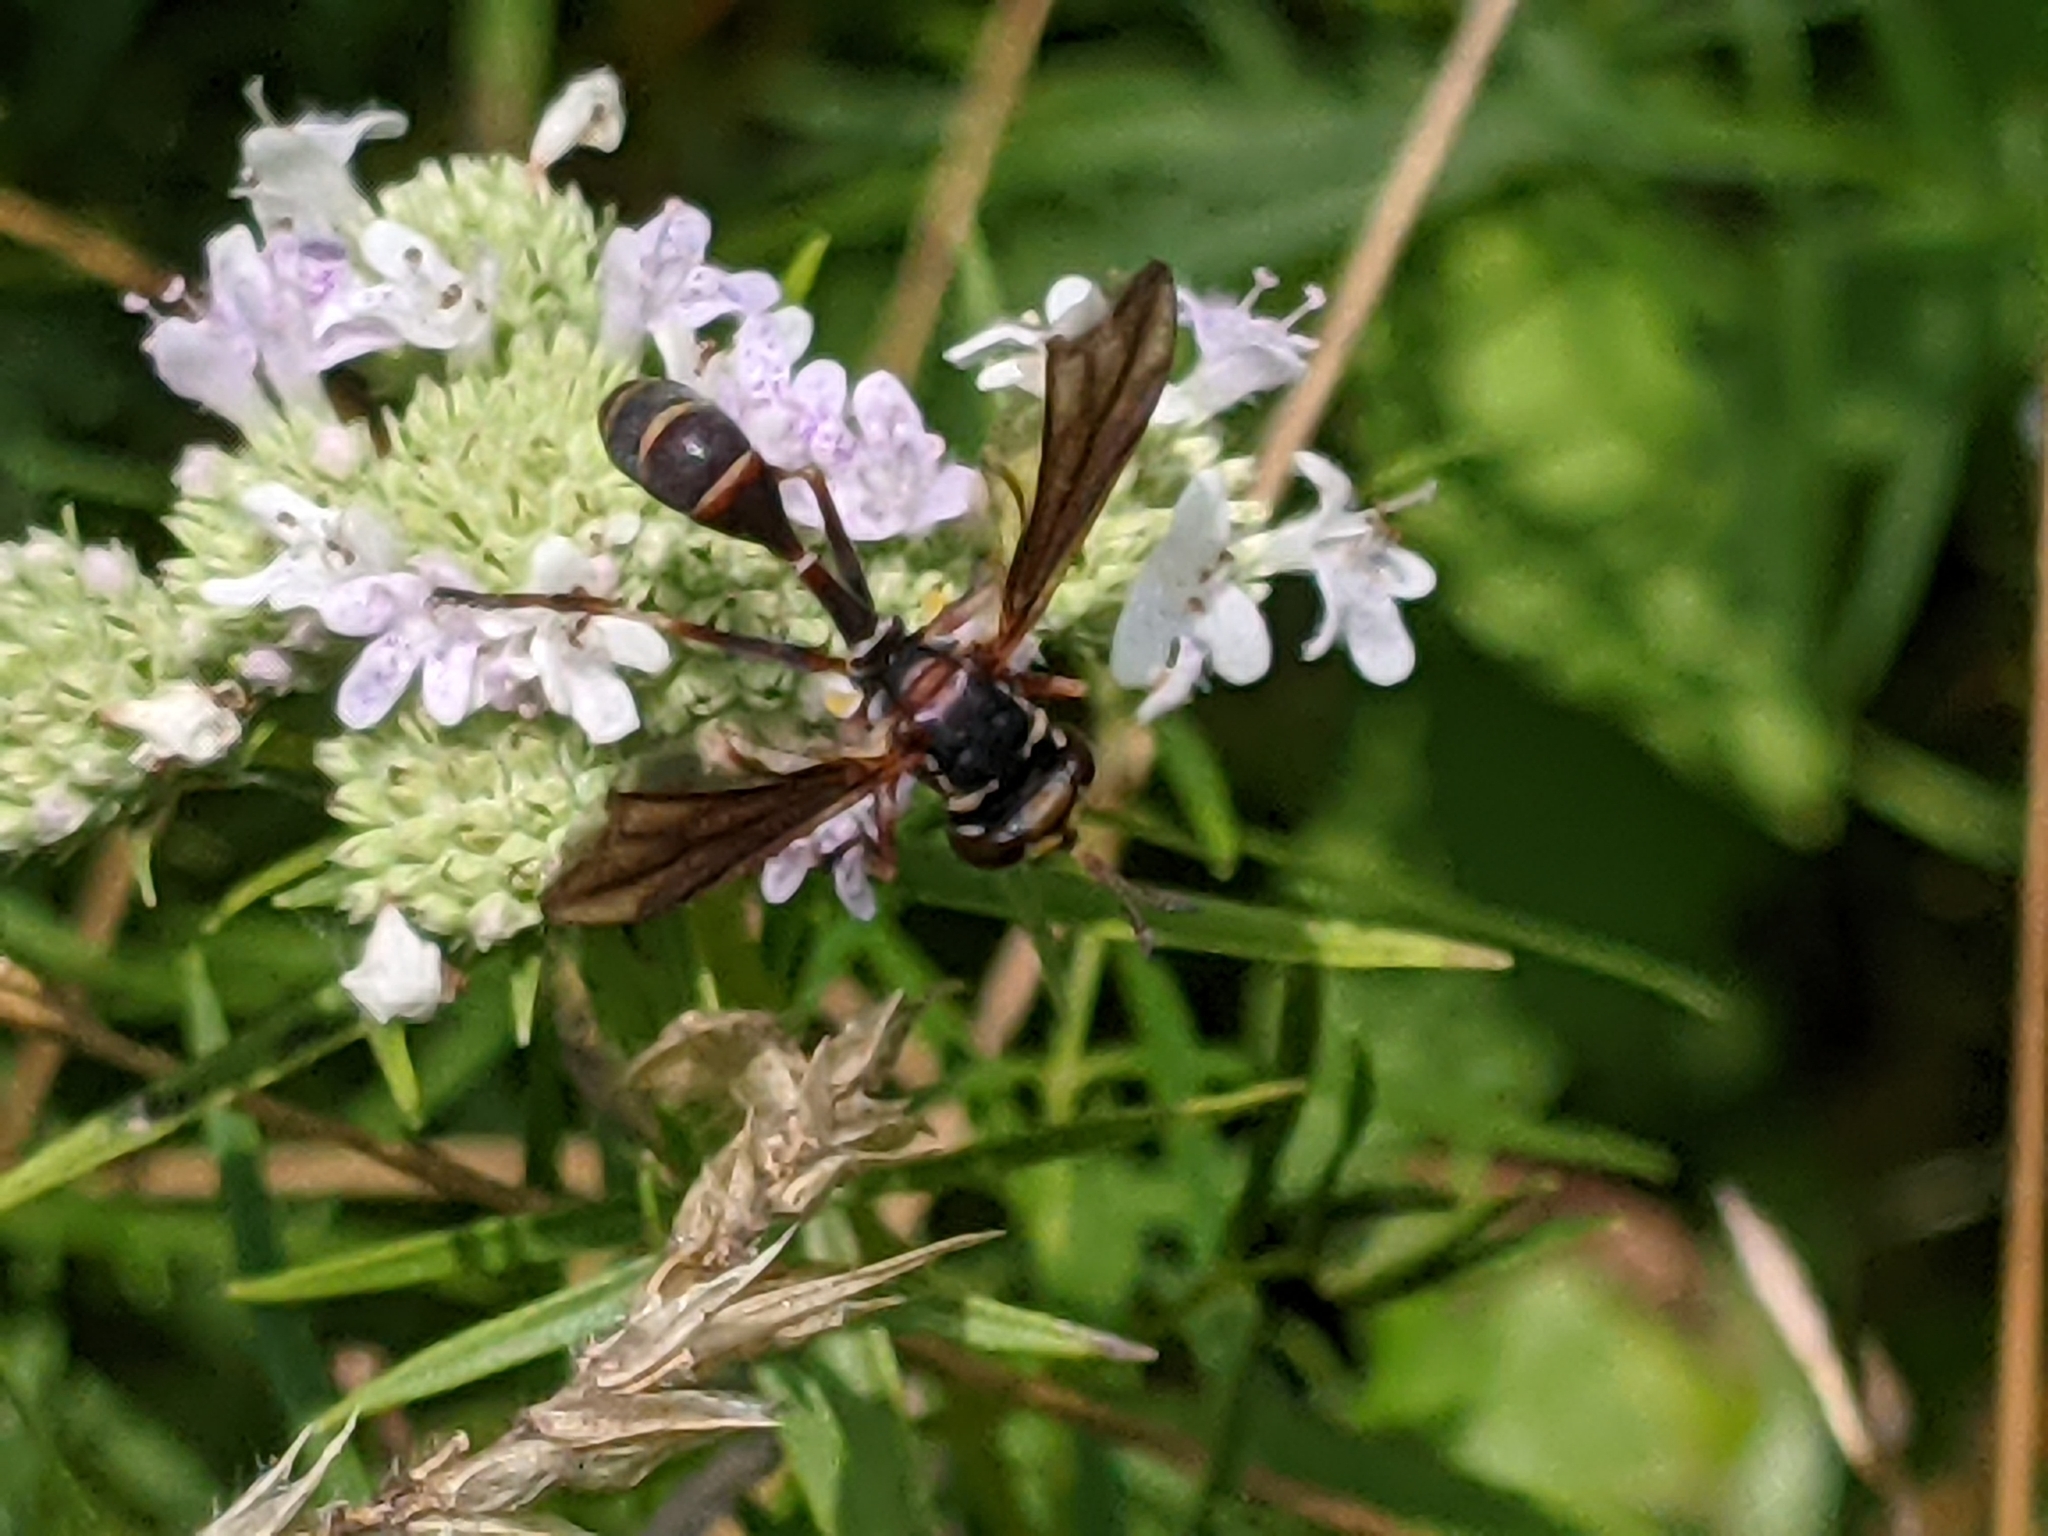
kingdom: Animalia
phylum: Arthropoda
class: Insecta
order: Diptera
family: Conopidae
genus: Physocephala
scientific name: Physocephala sagittaria
